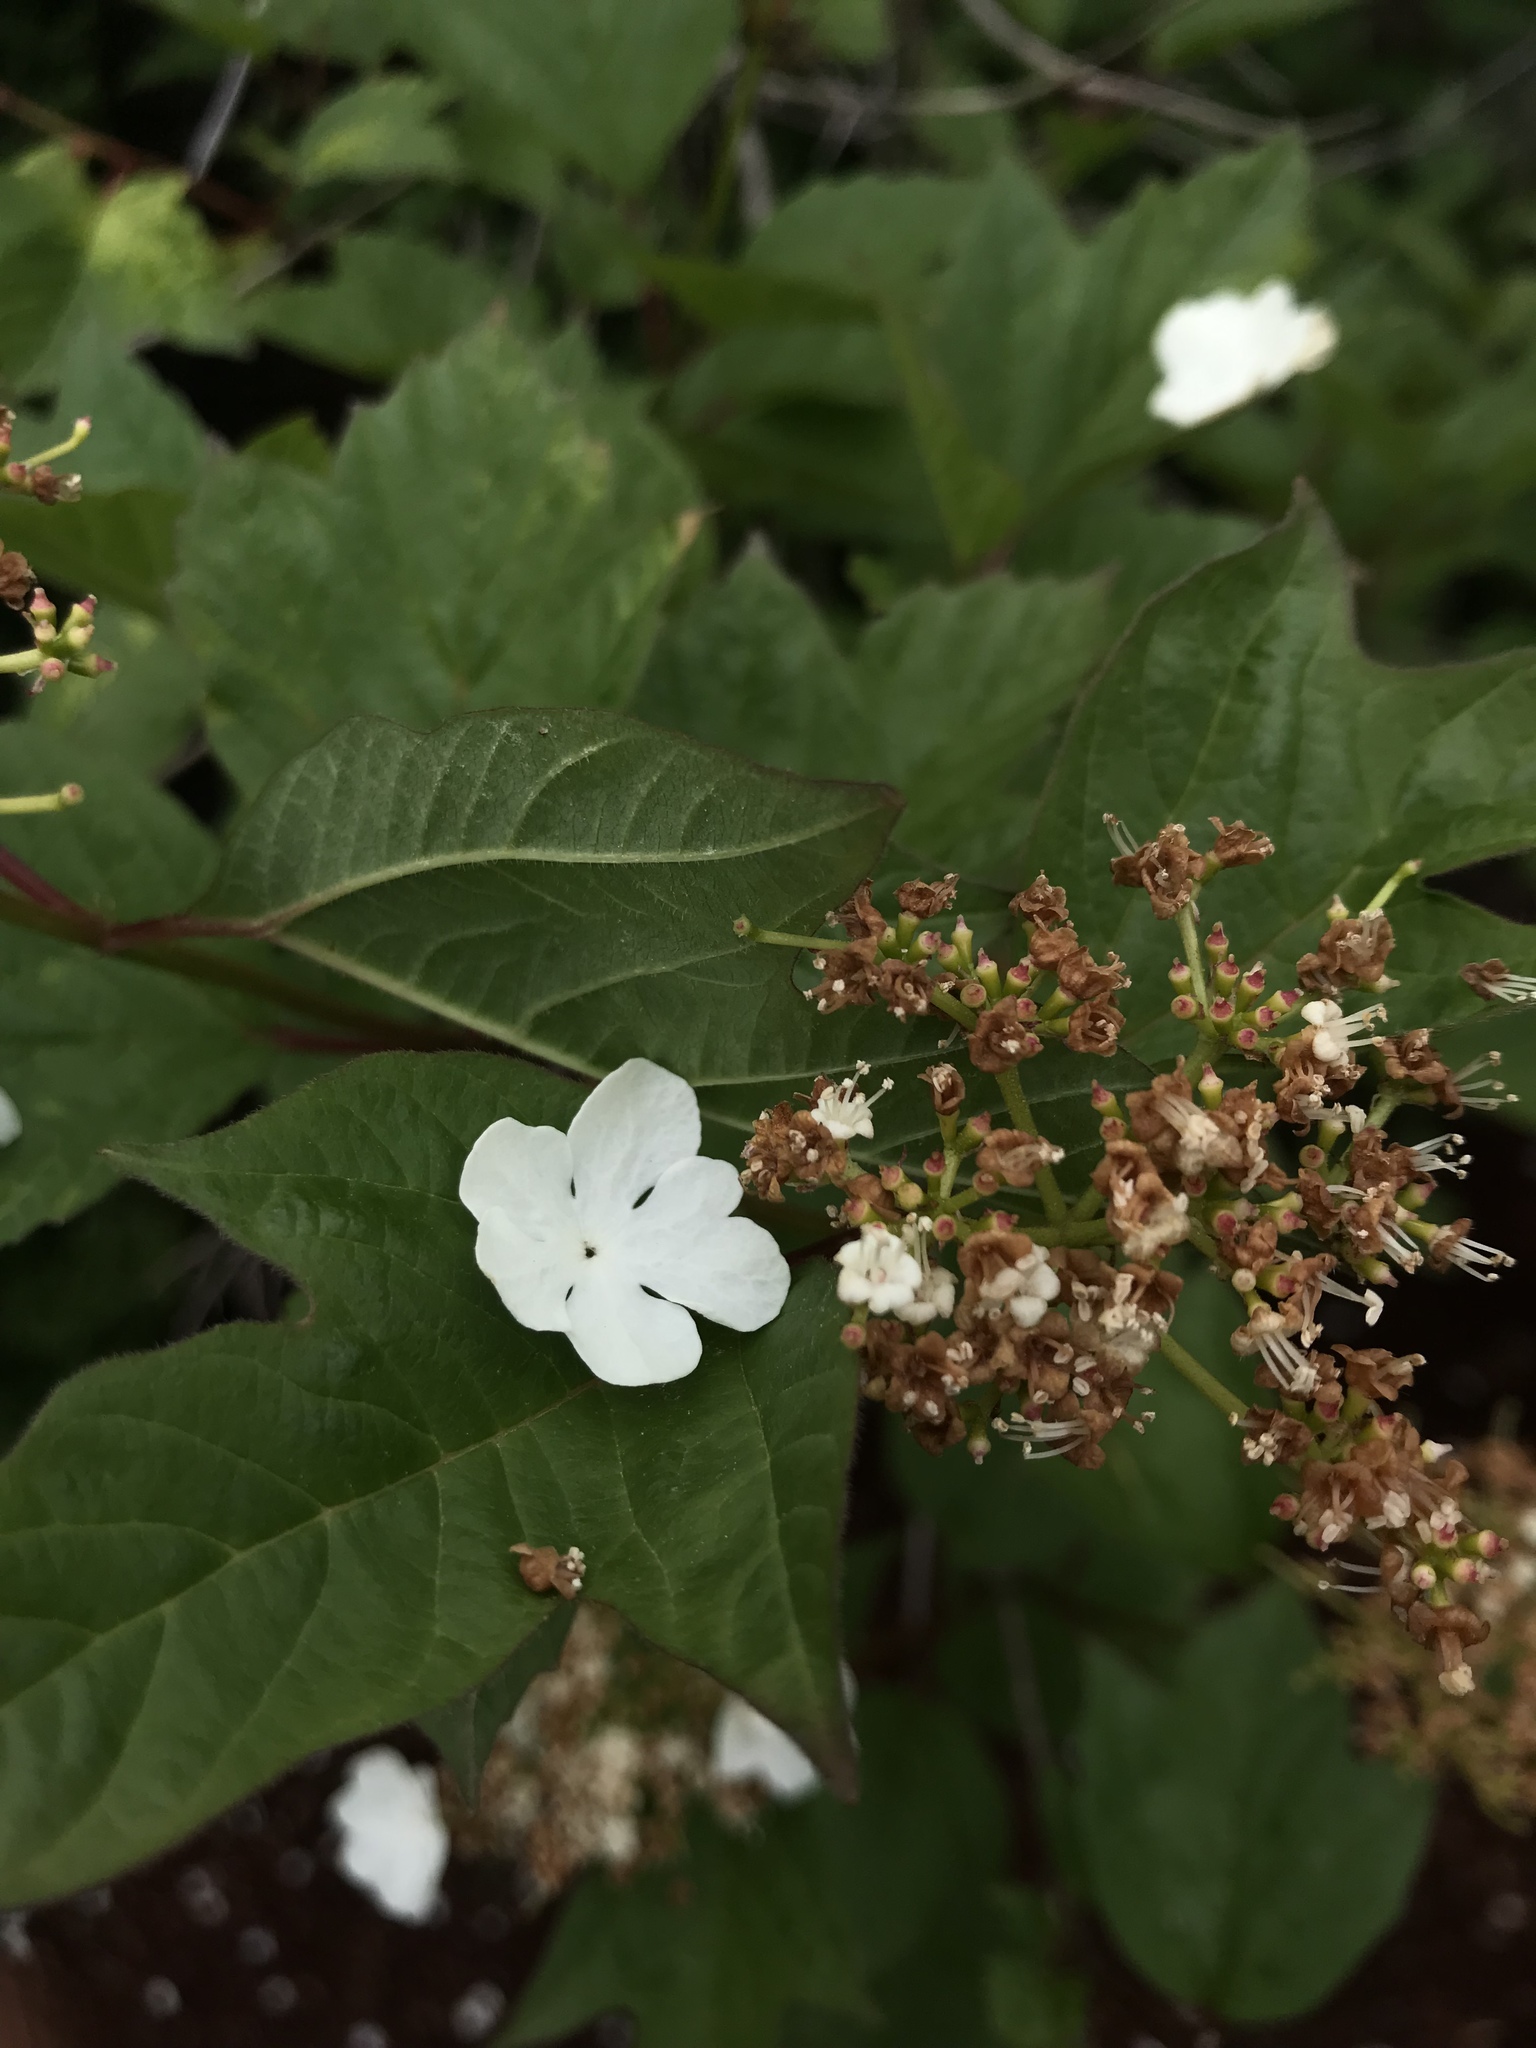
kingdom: Plantae
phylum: Tracheophyta
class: Magnoliopsida
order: Dipsacales
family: Viburnaceae
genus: Viburnum
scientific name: Viburnum opulus
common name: Guelder-rose
